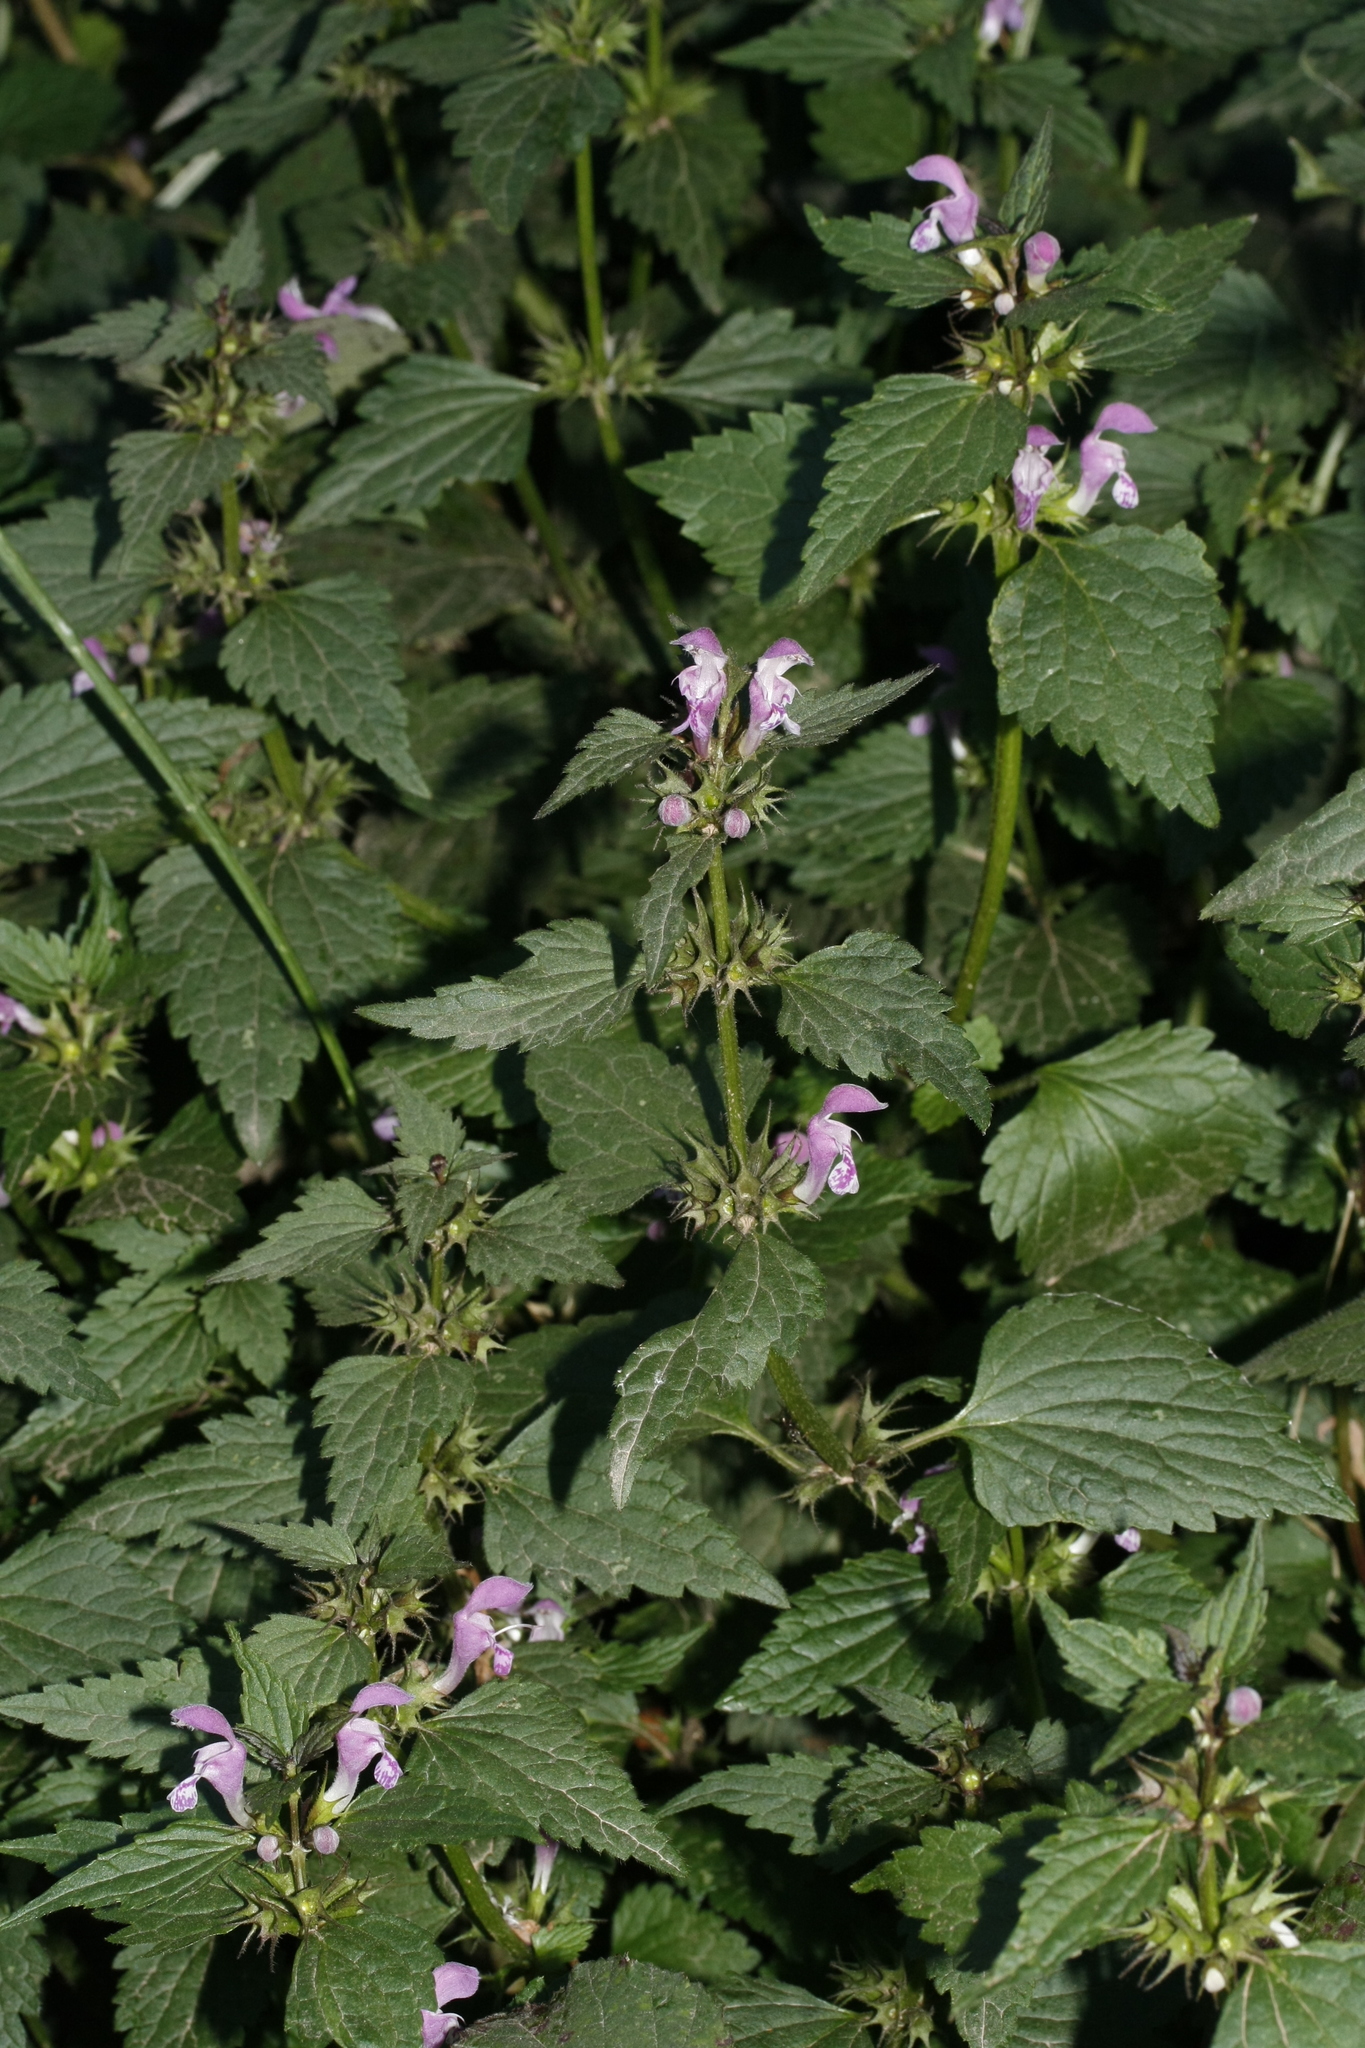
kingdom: Plantae
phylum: Tracheophyta
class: Magnoliopsida
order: Lamiales
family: Lamiaceae
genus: Lamium
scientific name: Lamium maculatum
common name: Spotted dead-nettle
